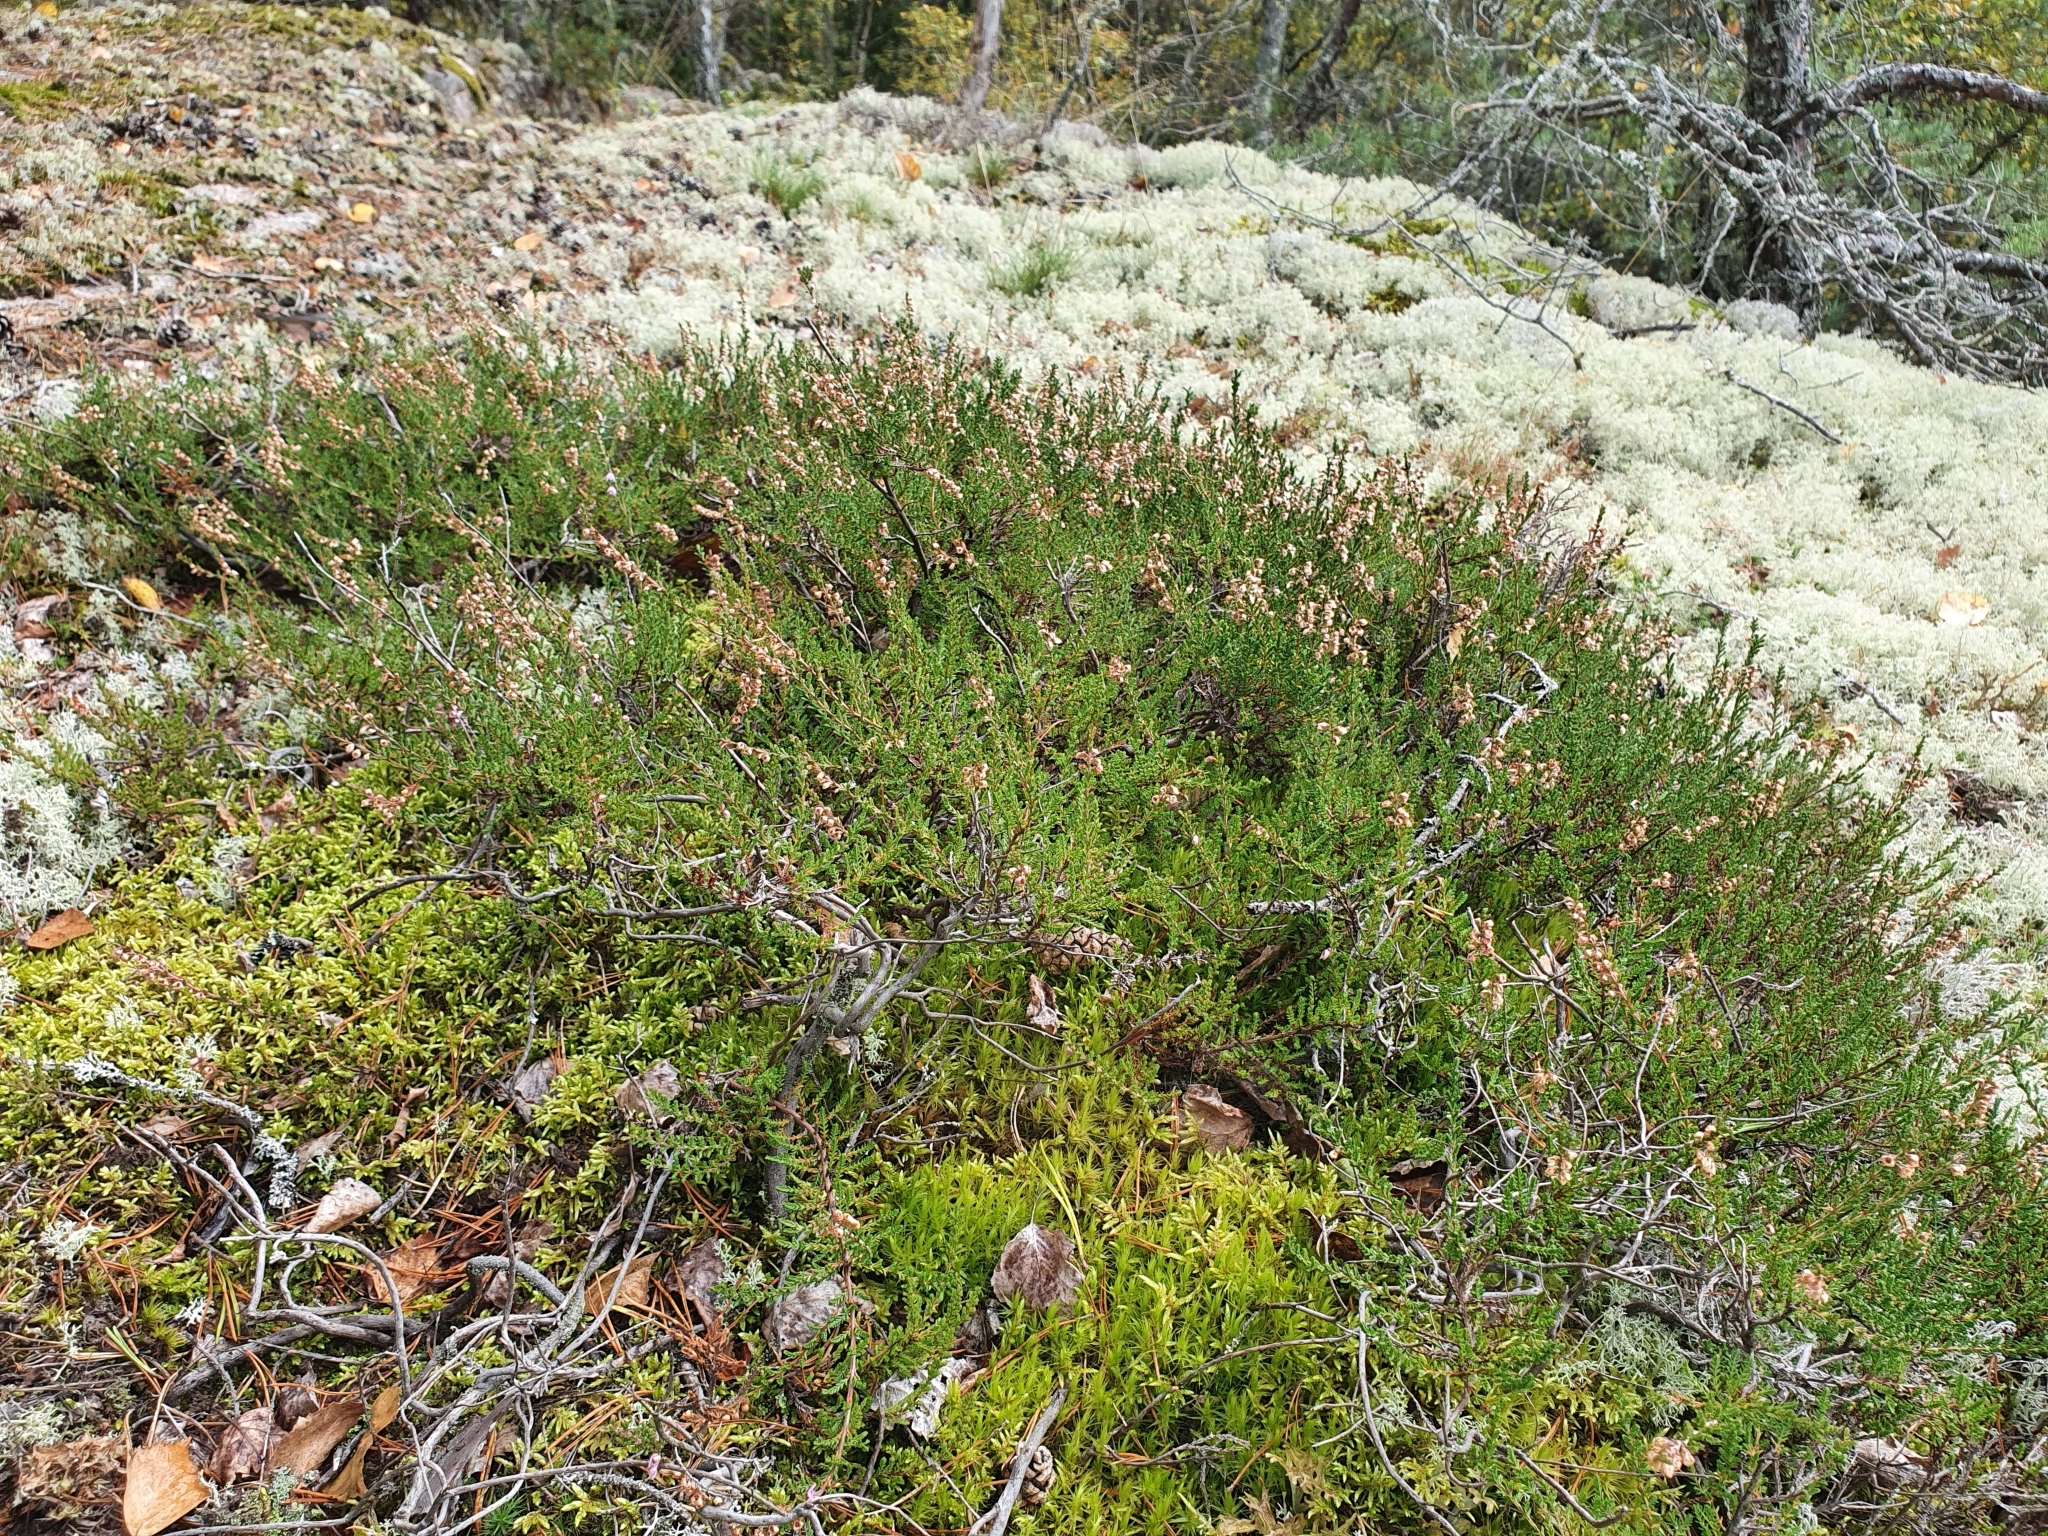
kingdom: Plantae
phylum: Tracheophyta
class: Magnoliopsida
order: Ericales
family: Ericaceae
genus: Calluna
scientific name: Calluna vulgaris
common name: Heather
